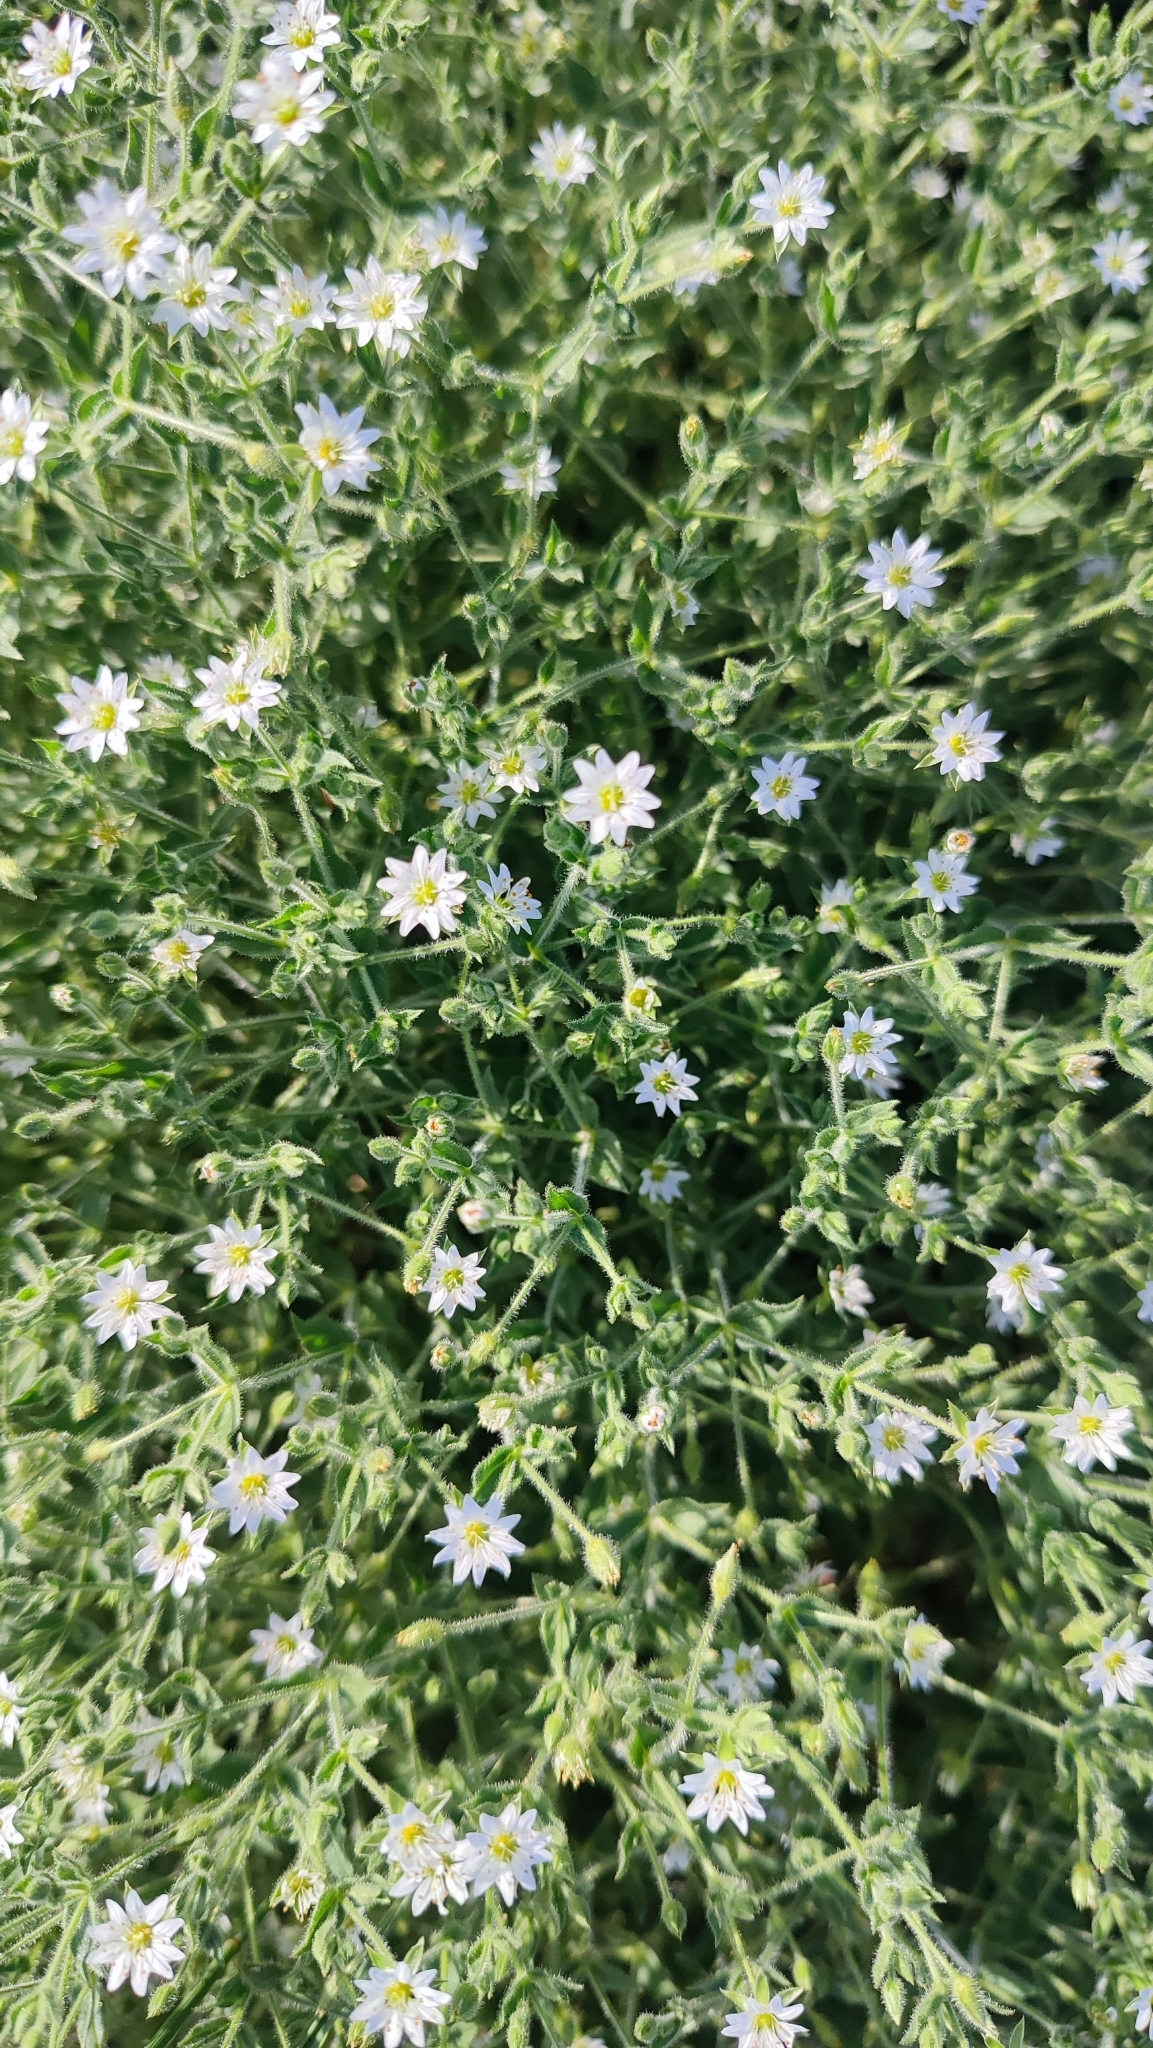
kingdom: Plantae
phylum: Tracheophyta
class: Magnoliopsida
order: Caryophyllales
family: Caryophyllaceae
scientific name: Caryophyllaceae
